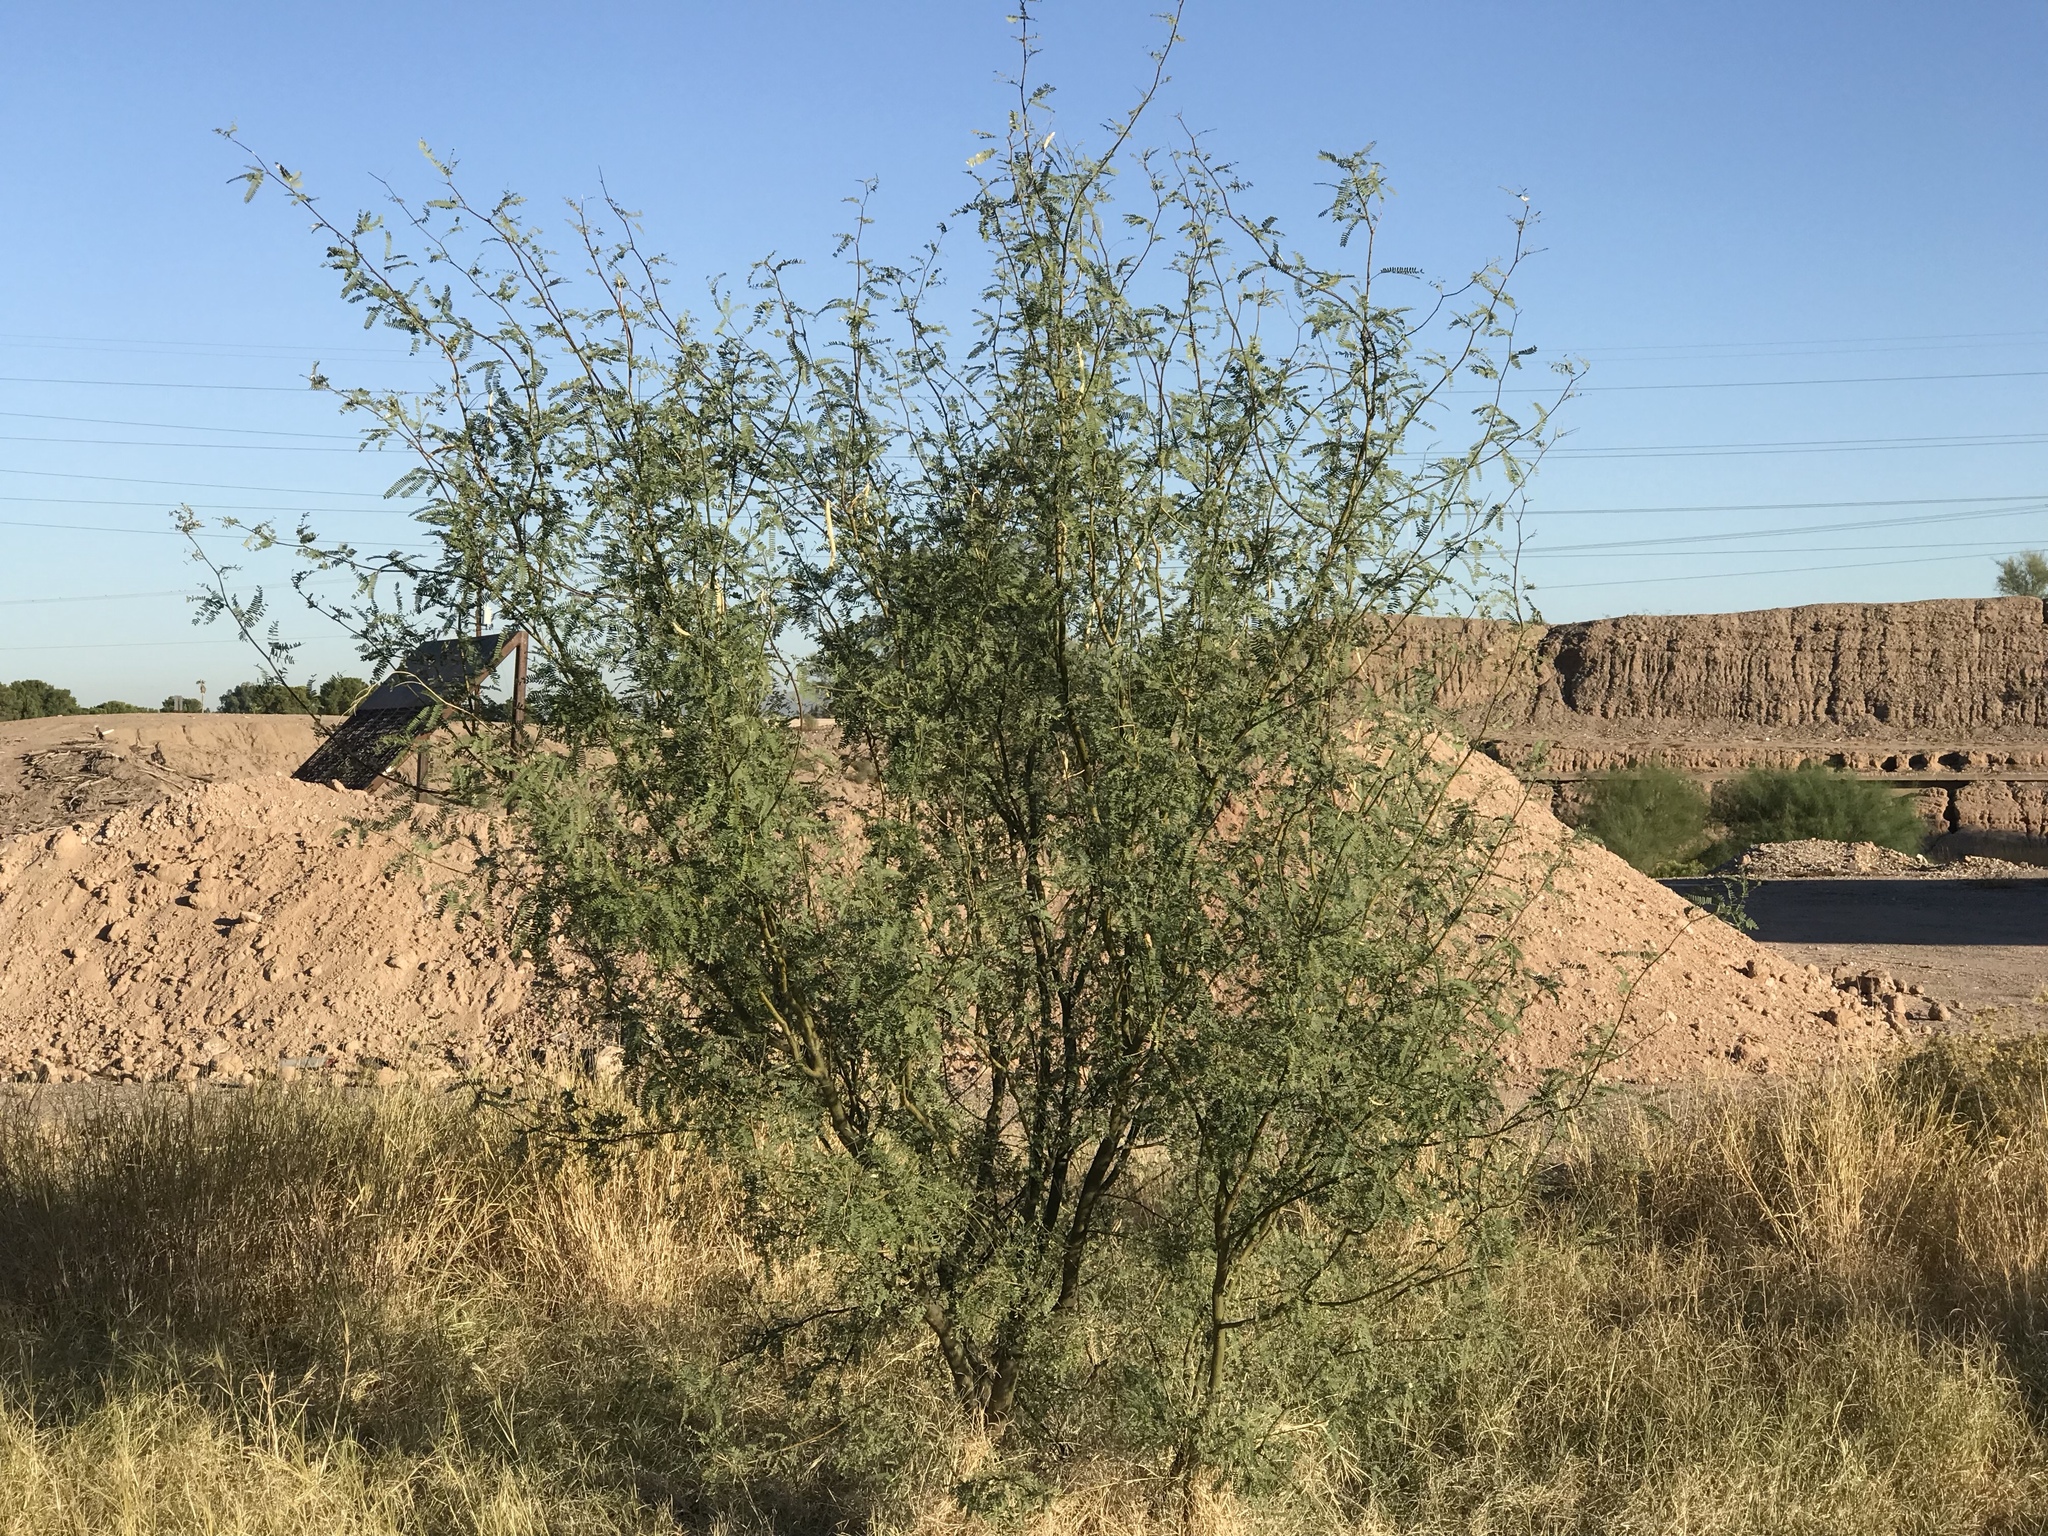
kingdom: Plantae
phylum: Tracheophyta
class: Magnoliopsida
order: Fabales
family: Fabaceae
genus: Prosopis
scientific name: Prosopis velutina
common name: Velvet mesquite
